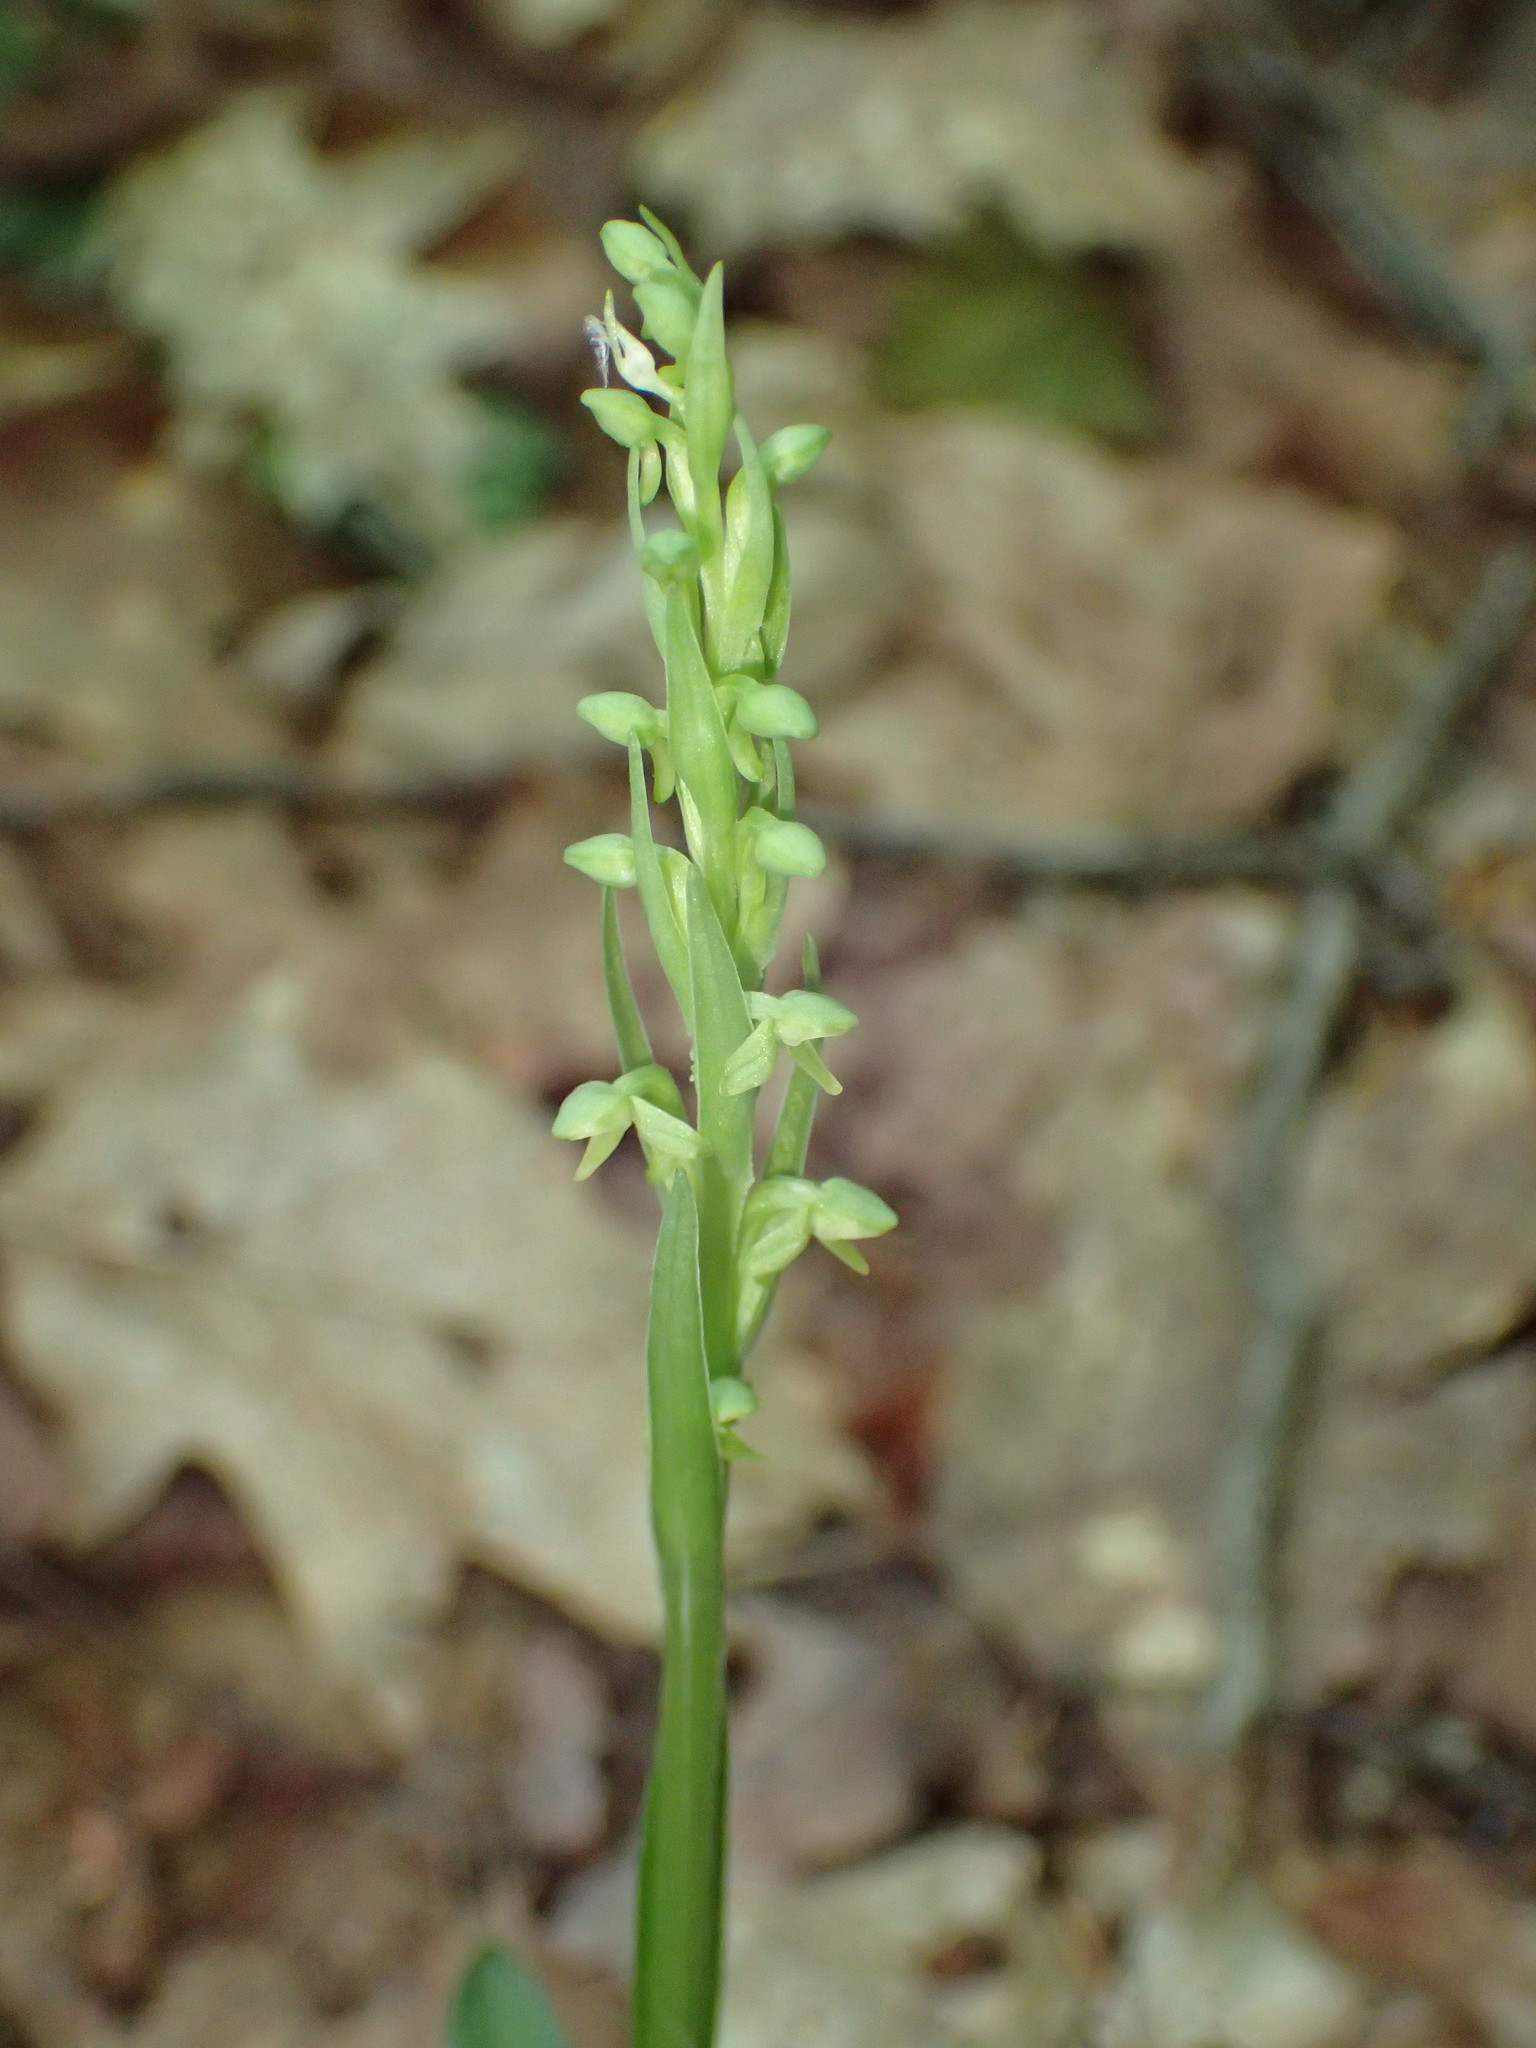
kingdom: Plantae
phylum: Tracheophyta
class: Liliopsida
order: Asparagales
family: Orchidaceae
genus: Platanthera
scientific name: Platanthera aquilonis
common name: Northern green orchid
